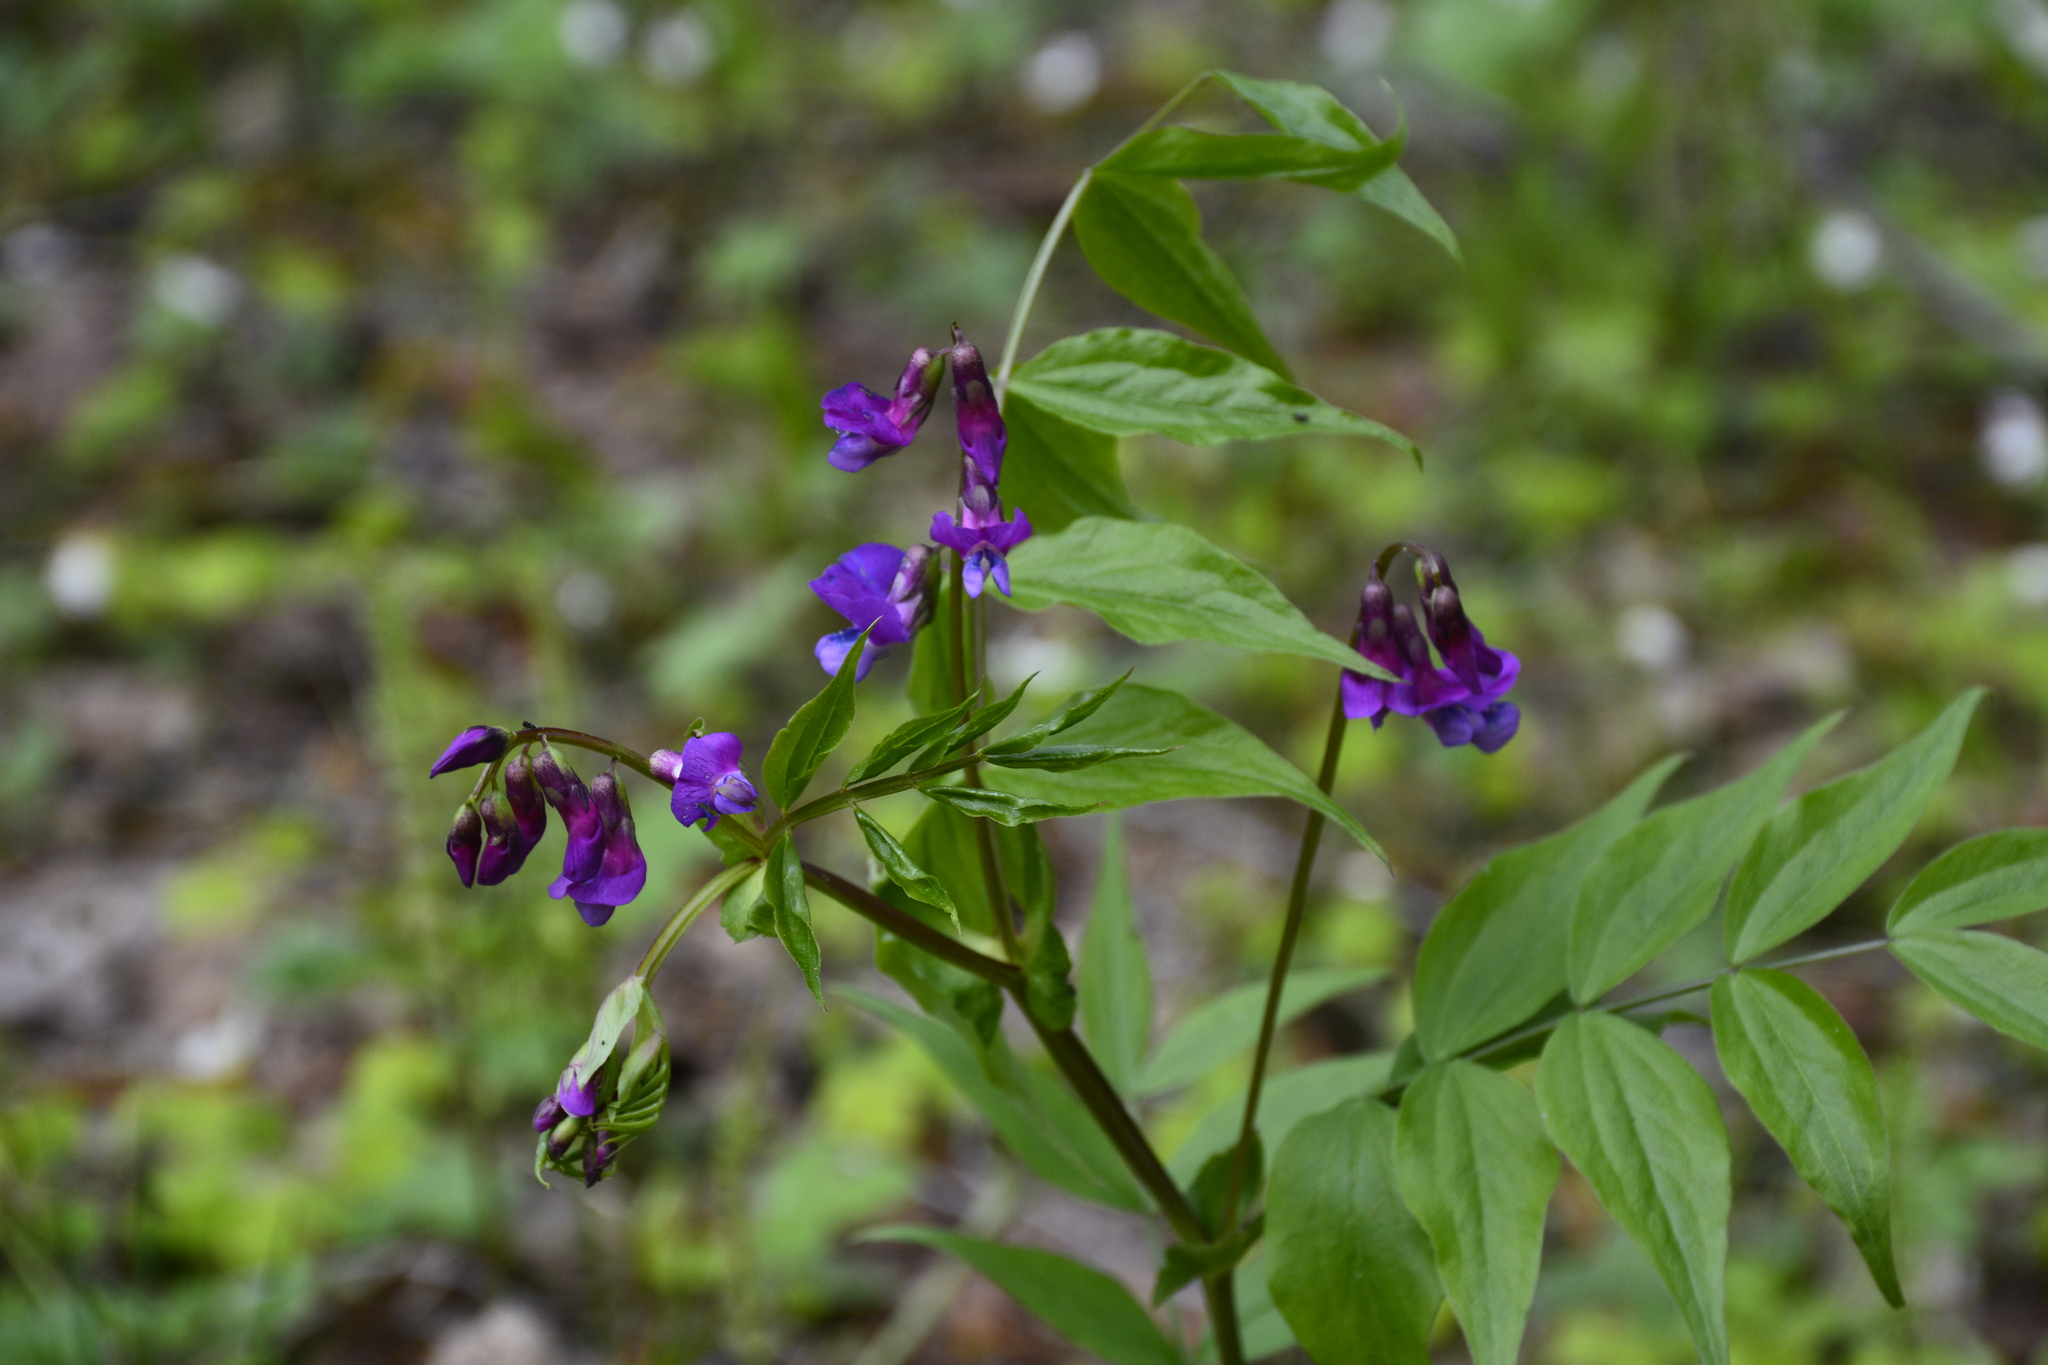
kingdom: Plantae
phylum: Tracheophyta
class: Magnoliopsida
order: Fabales
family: Fabaceae
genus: Lathyrus
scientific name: Lathyrus vernus
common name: Spring pea
